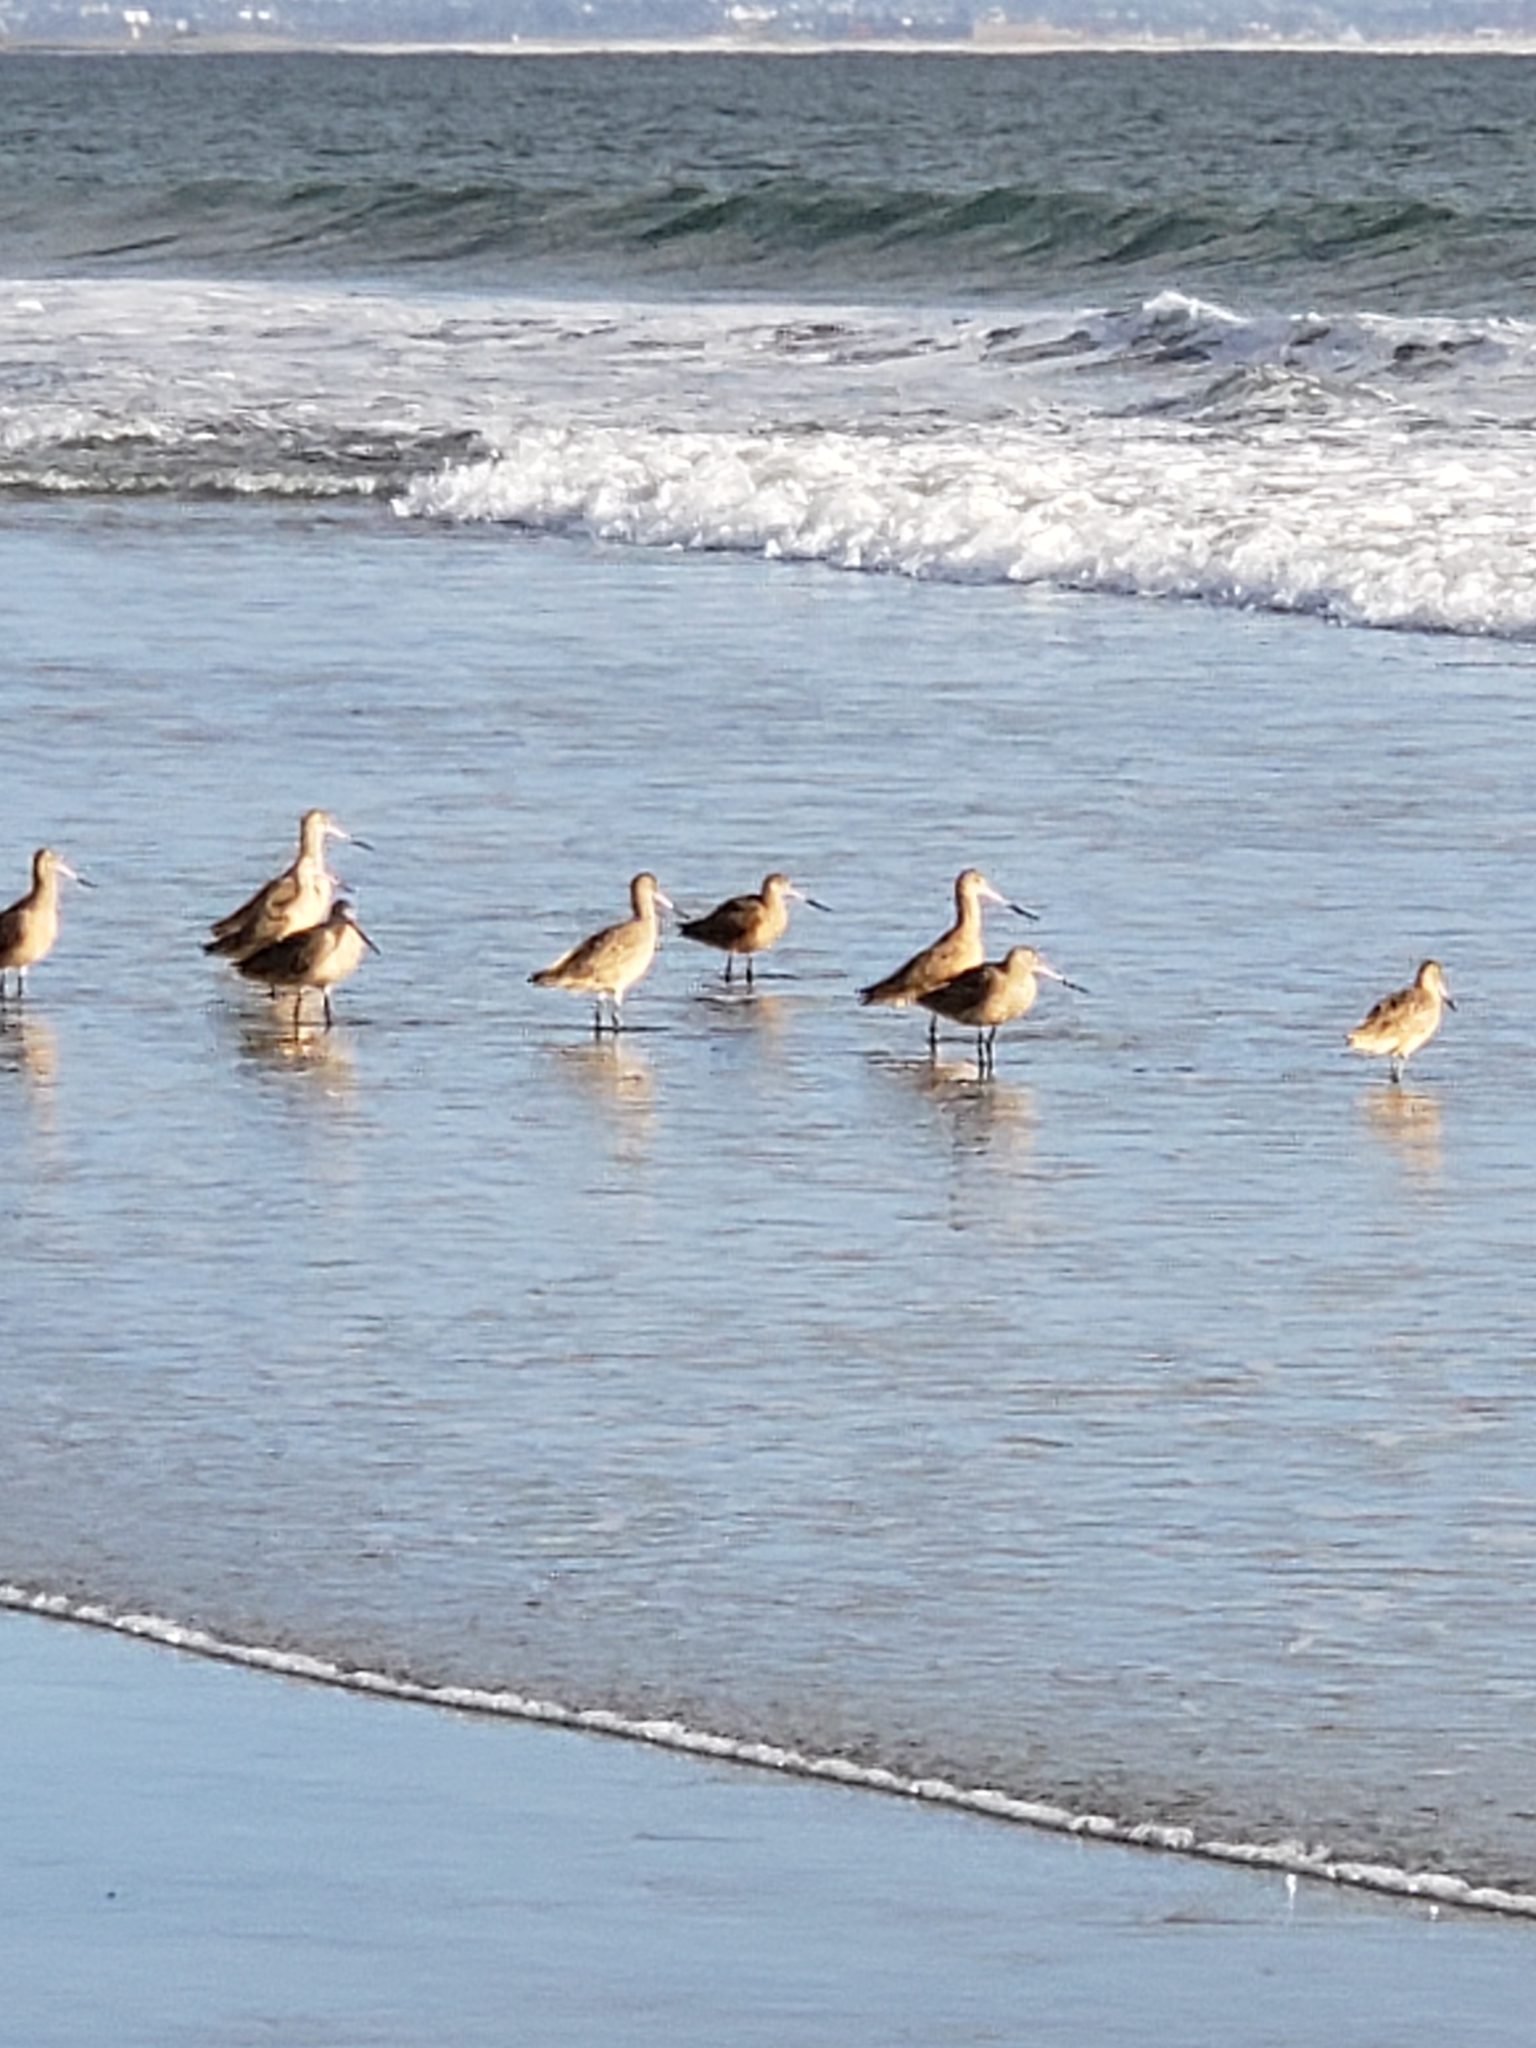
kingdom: Animalia
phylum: Chordata
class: Aves
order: Charadriiformes
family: Scolopacidae
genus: Limosa
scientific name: Limosa fedoa
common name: Marbled godwit
